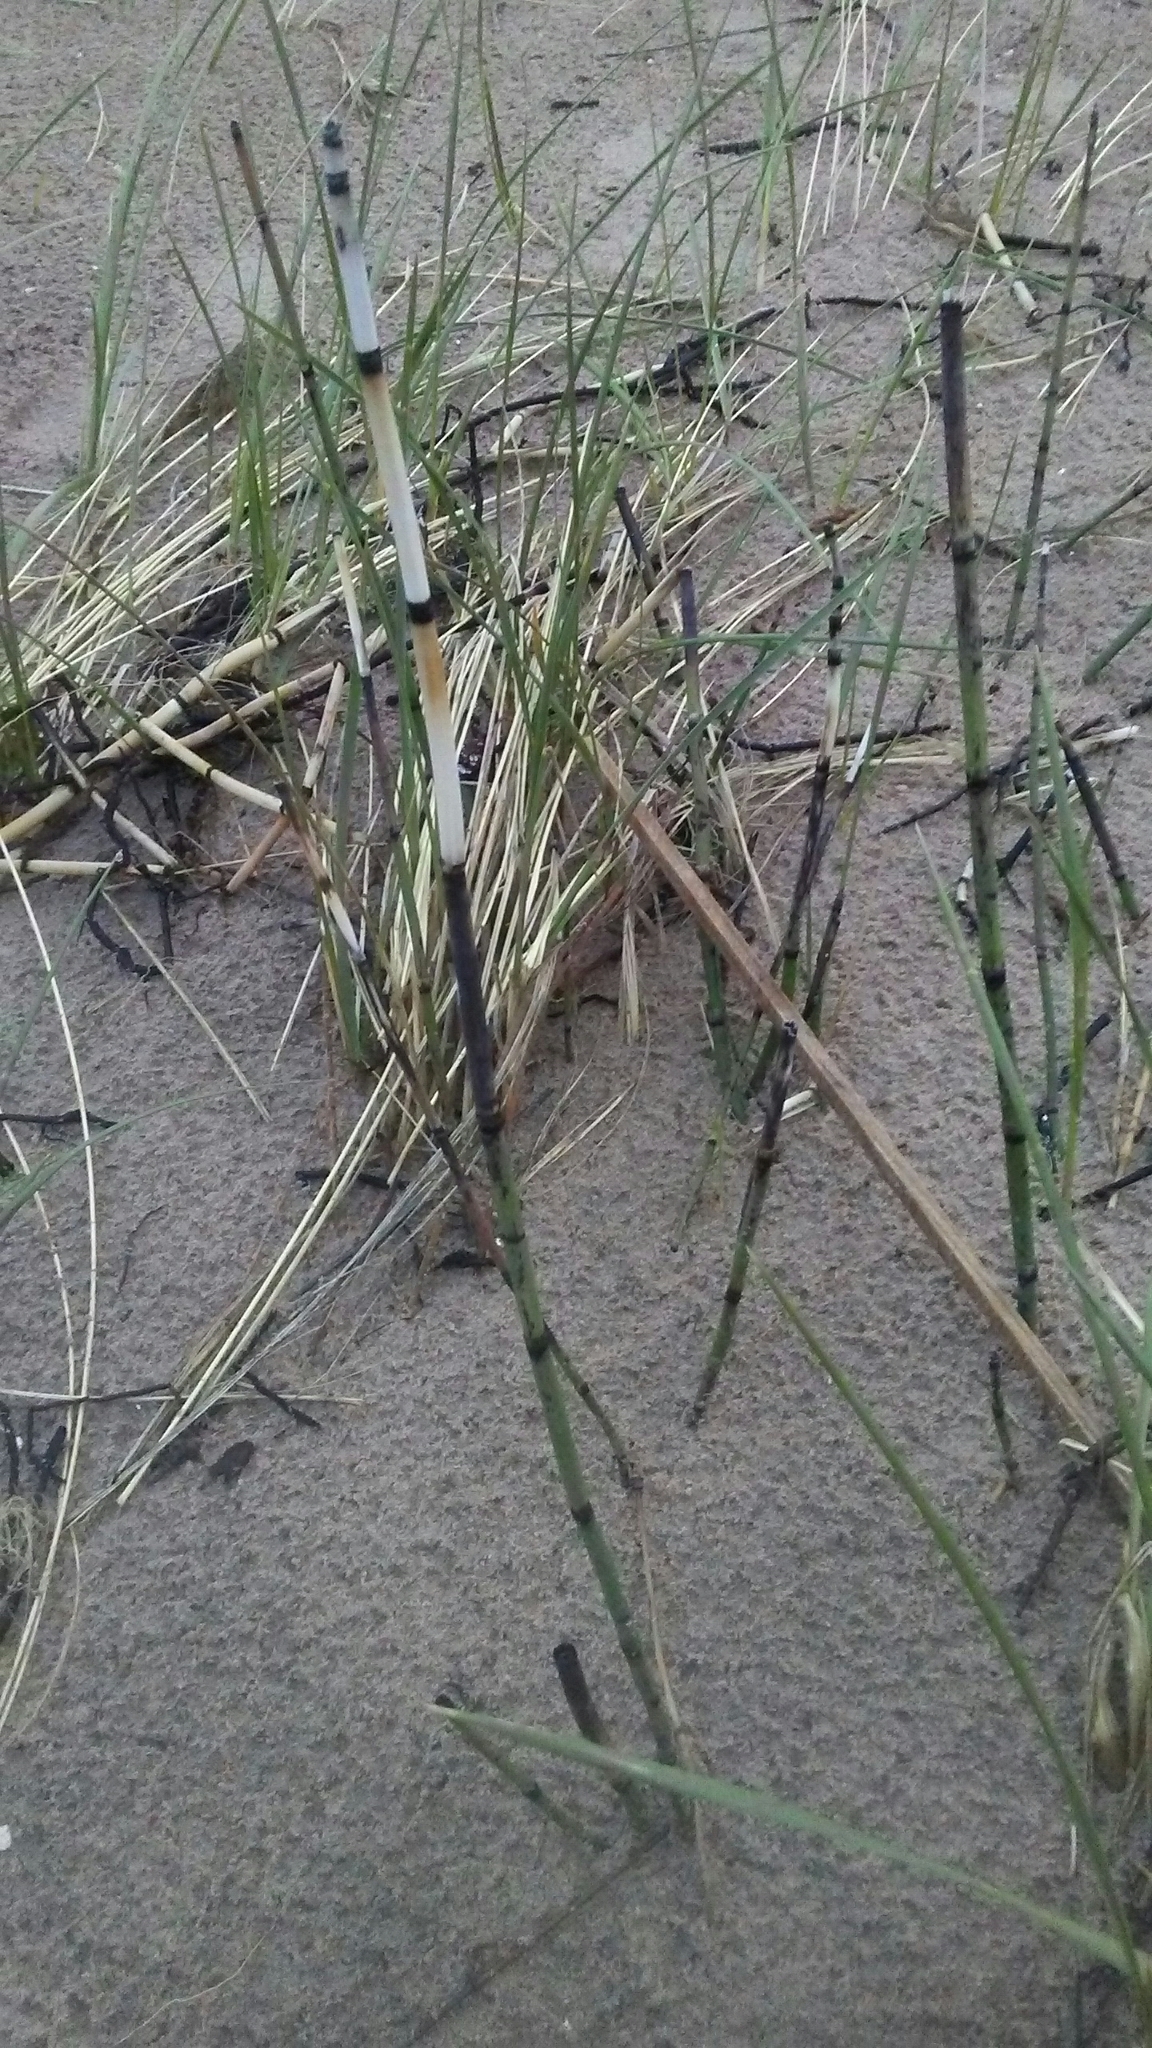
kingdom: Plantae
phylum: Tracheophyta
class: Polypodiopsida
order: Equisetales
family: Equisetaceae
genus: Equisetum
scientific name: Equisetum hyemale
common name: Rough horsetail
